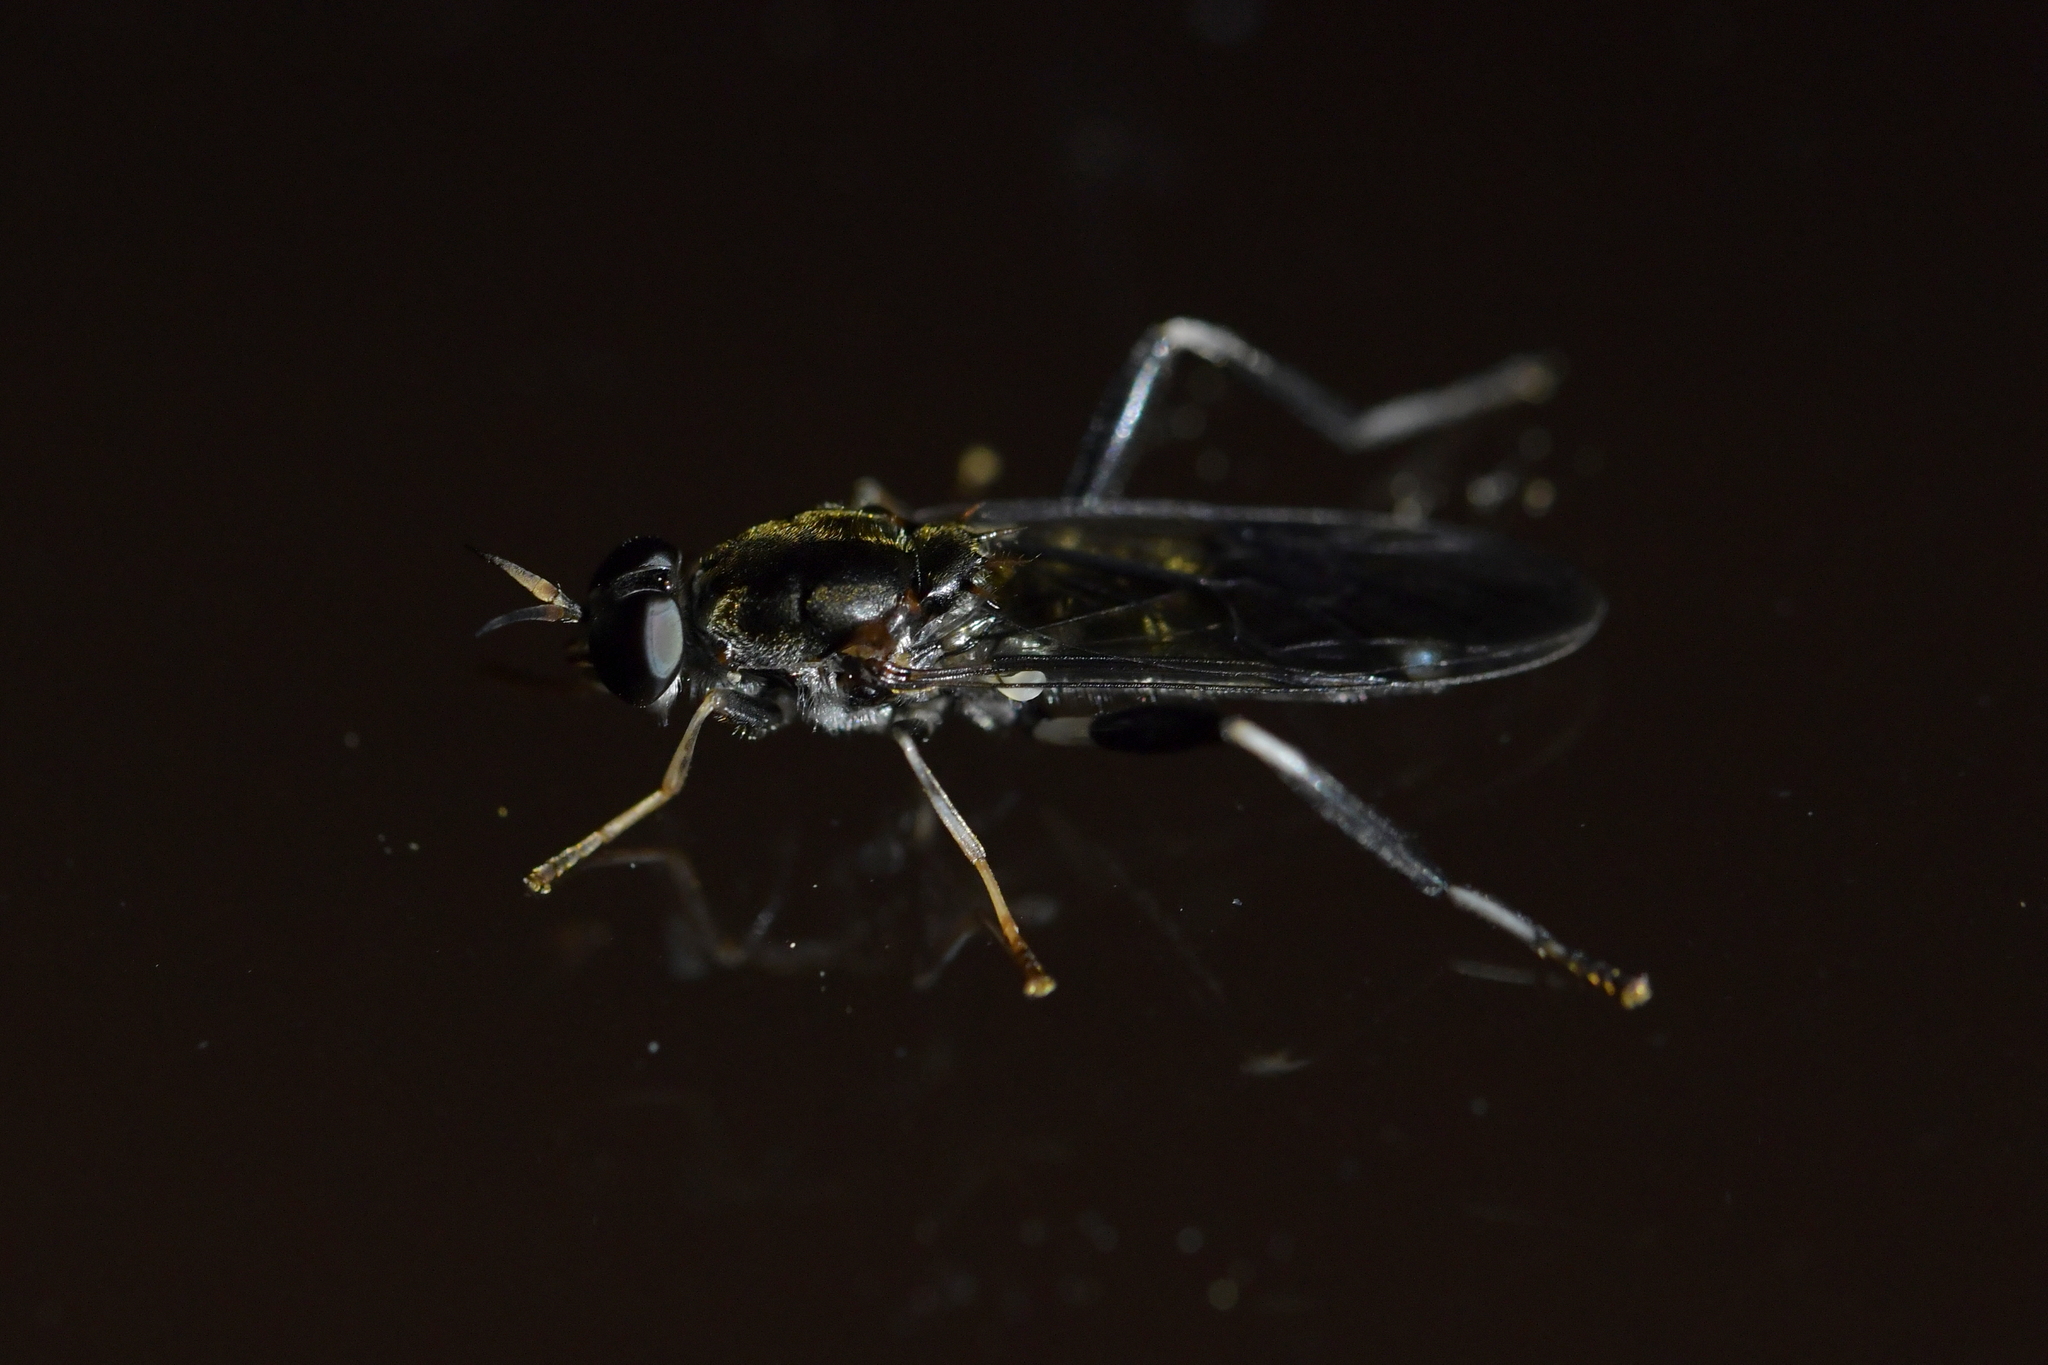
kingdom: Animalia
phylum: Arthropoda
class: Insecta
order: Diptera
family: Stratiomyidae
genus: Exaireta
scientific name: Exaireta spinigera
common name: Blue soldier fly
